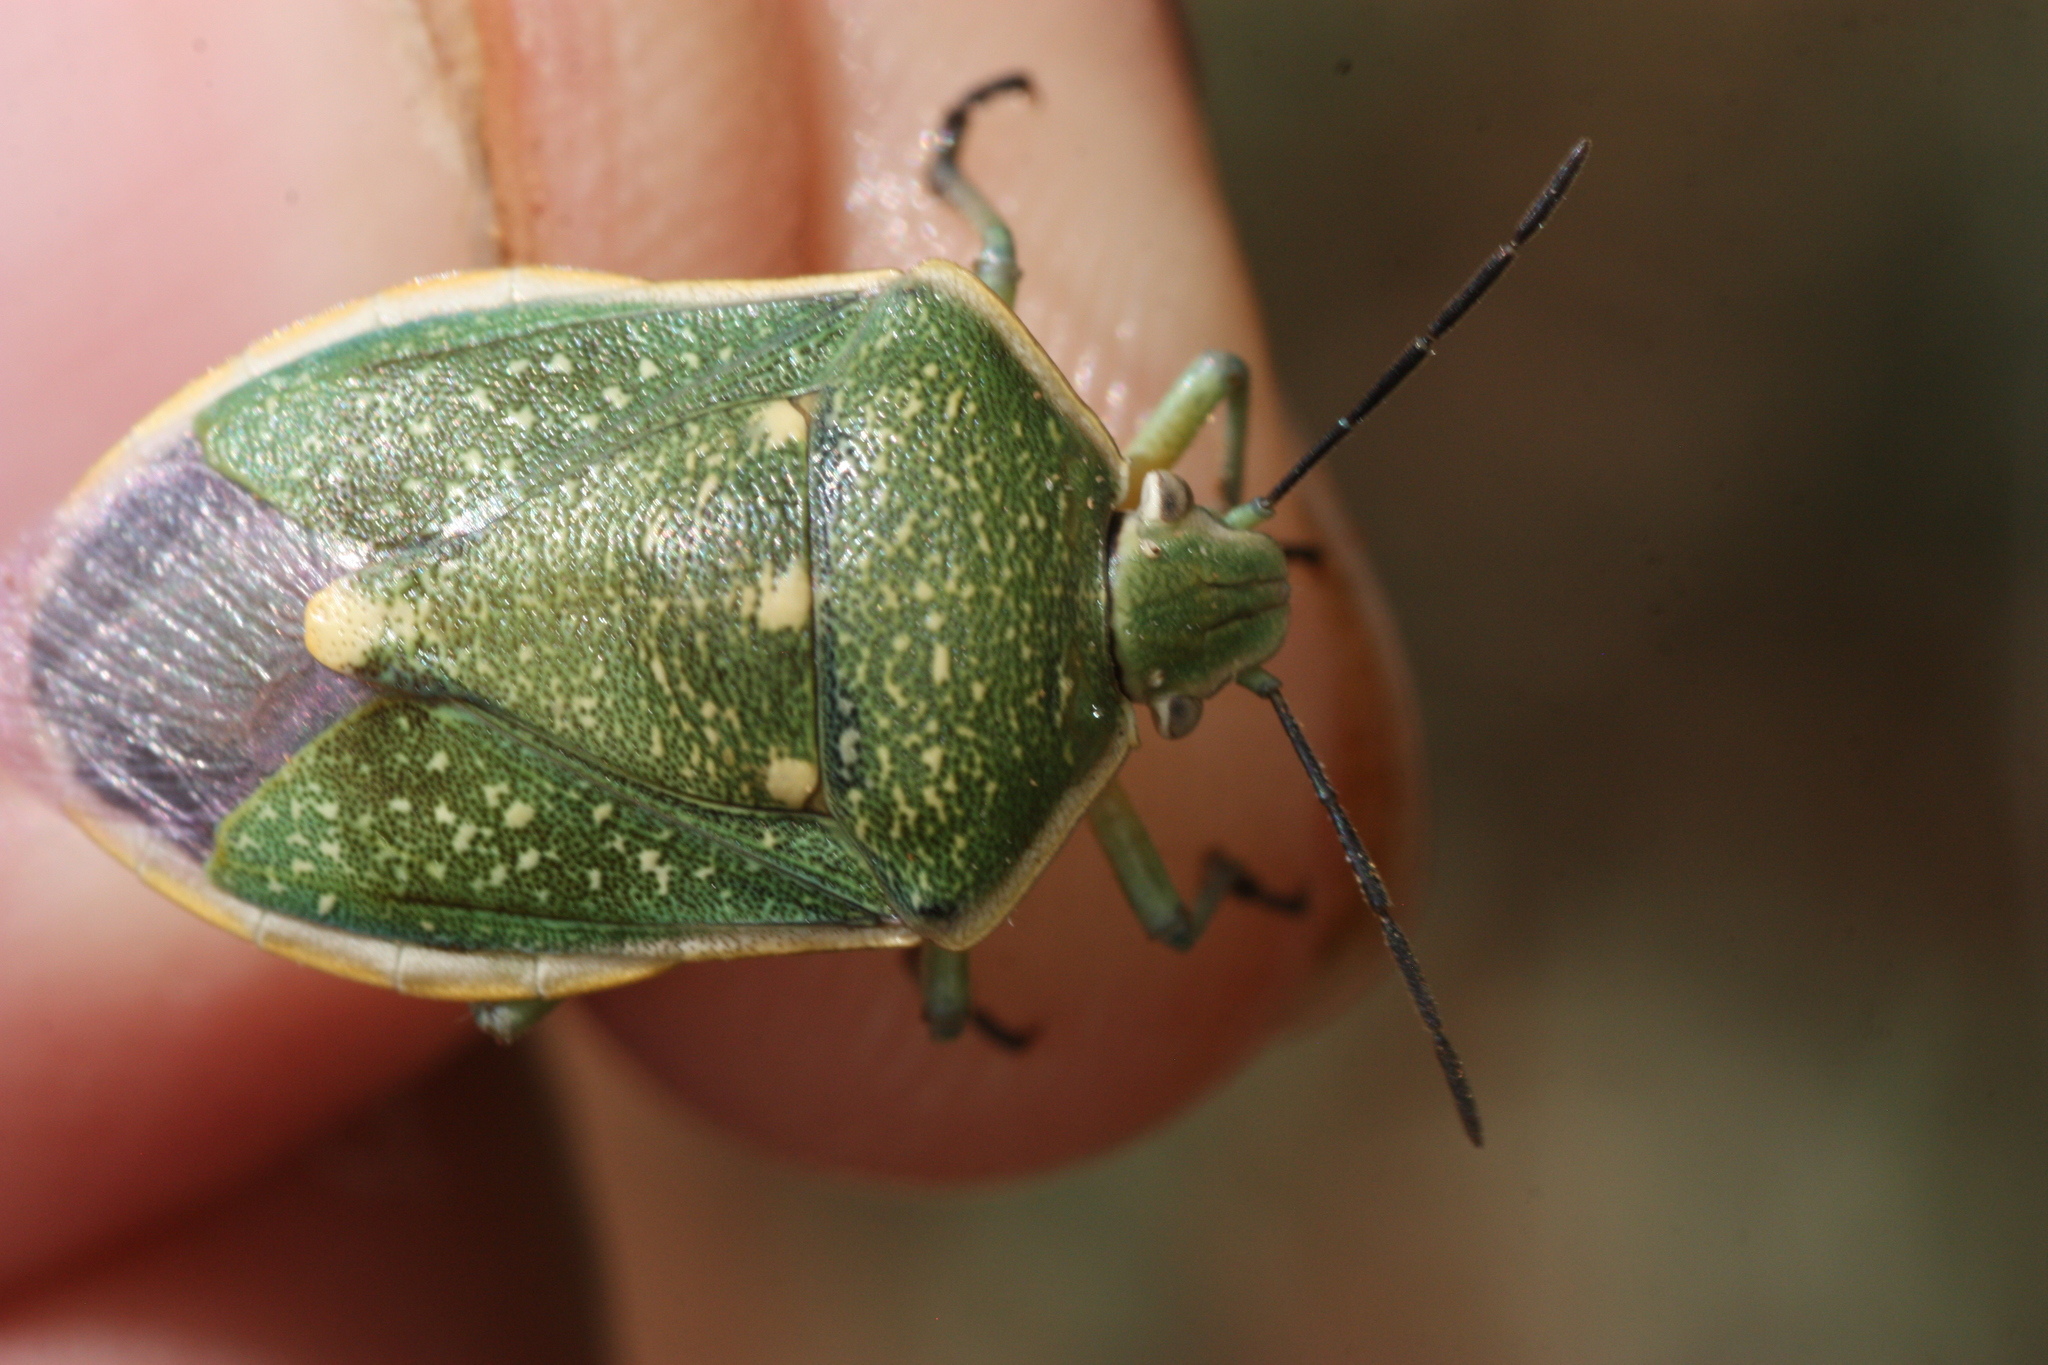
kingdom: Animalia
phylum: Arthropoda
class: Insecta
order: Hemiptera
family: Pentatomidae
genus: Chlorochroa
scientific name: Chlorochroa sayi
